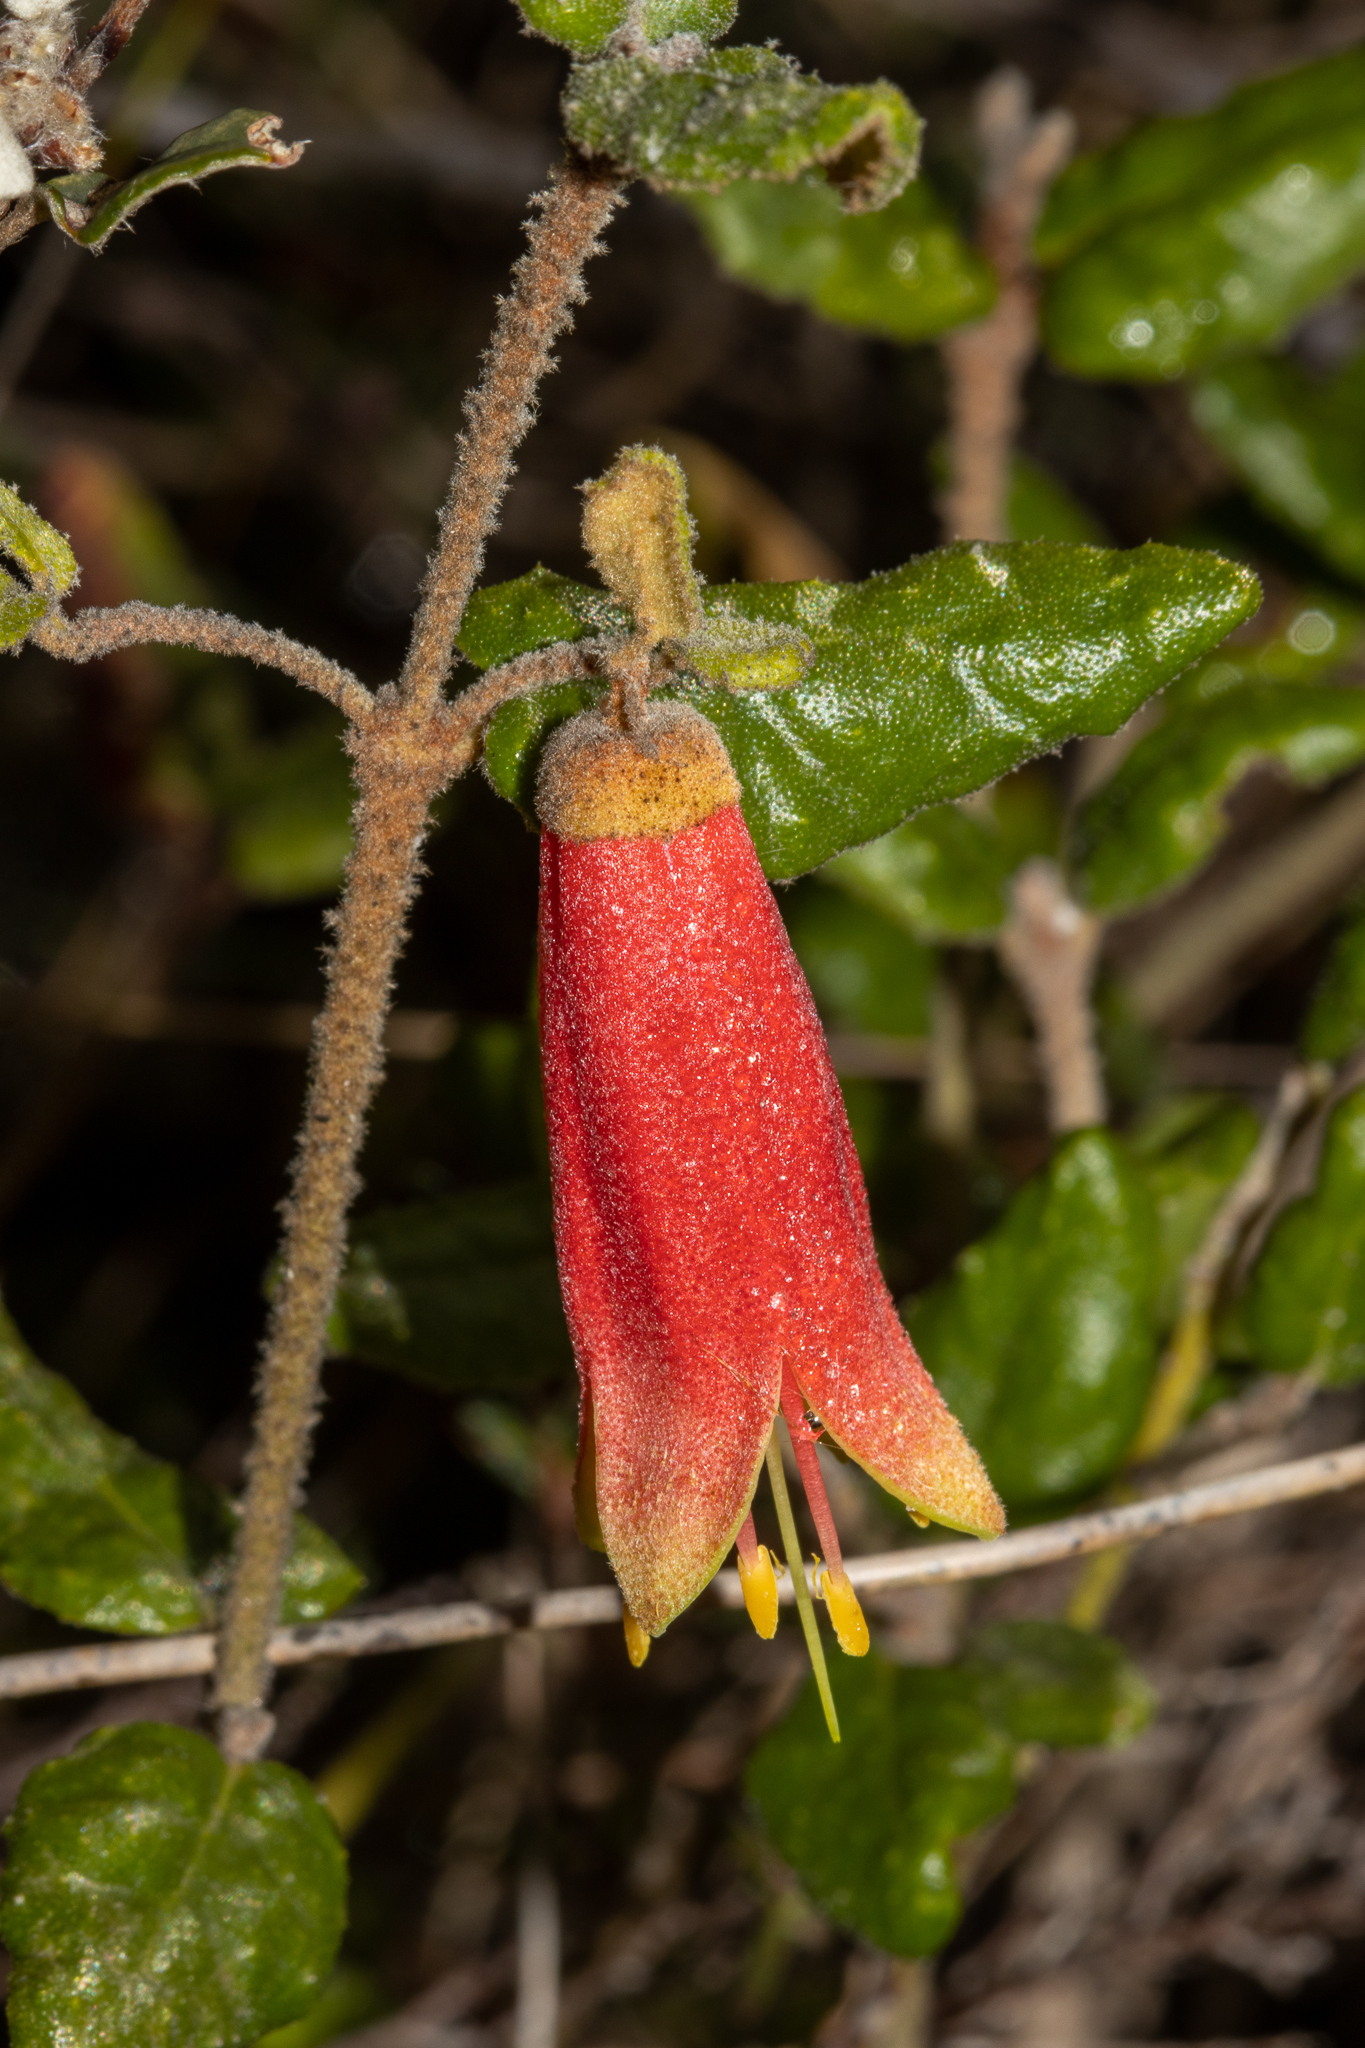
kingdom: Plantae
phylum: Tracheophyta
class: Magnoliopsida
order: Sapindales
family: Rutaceae
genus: Correa
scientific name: Correa reflexa
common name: Common correa
